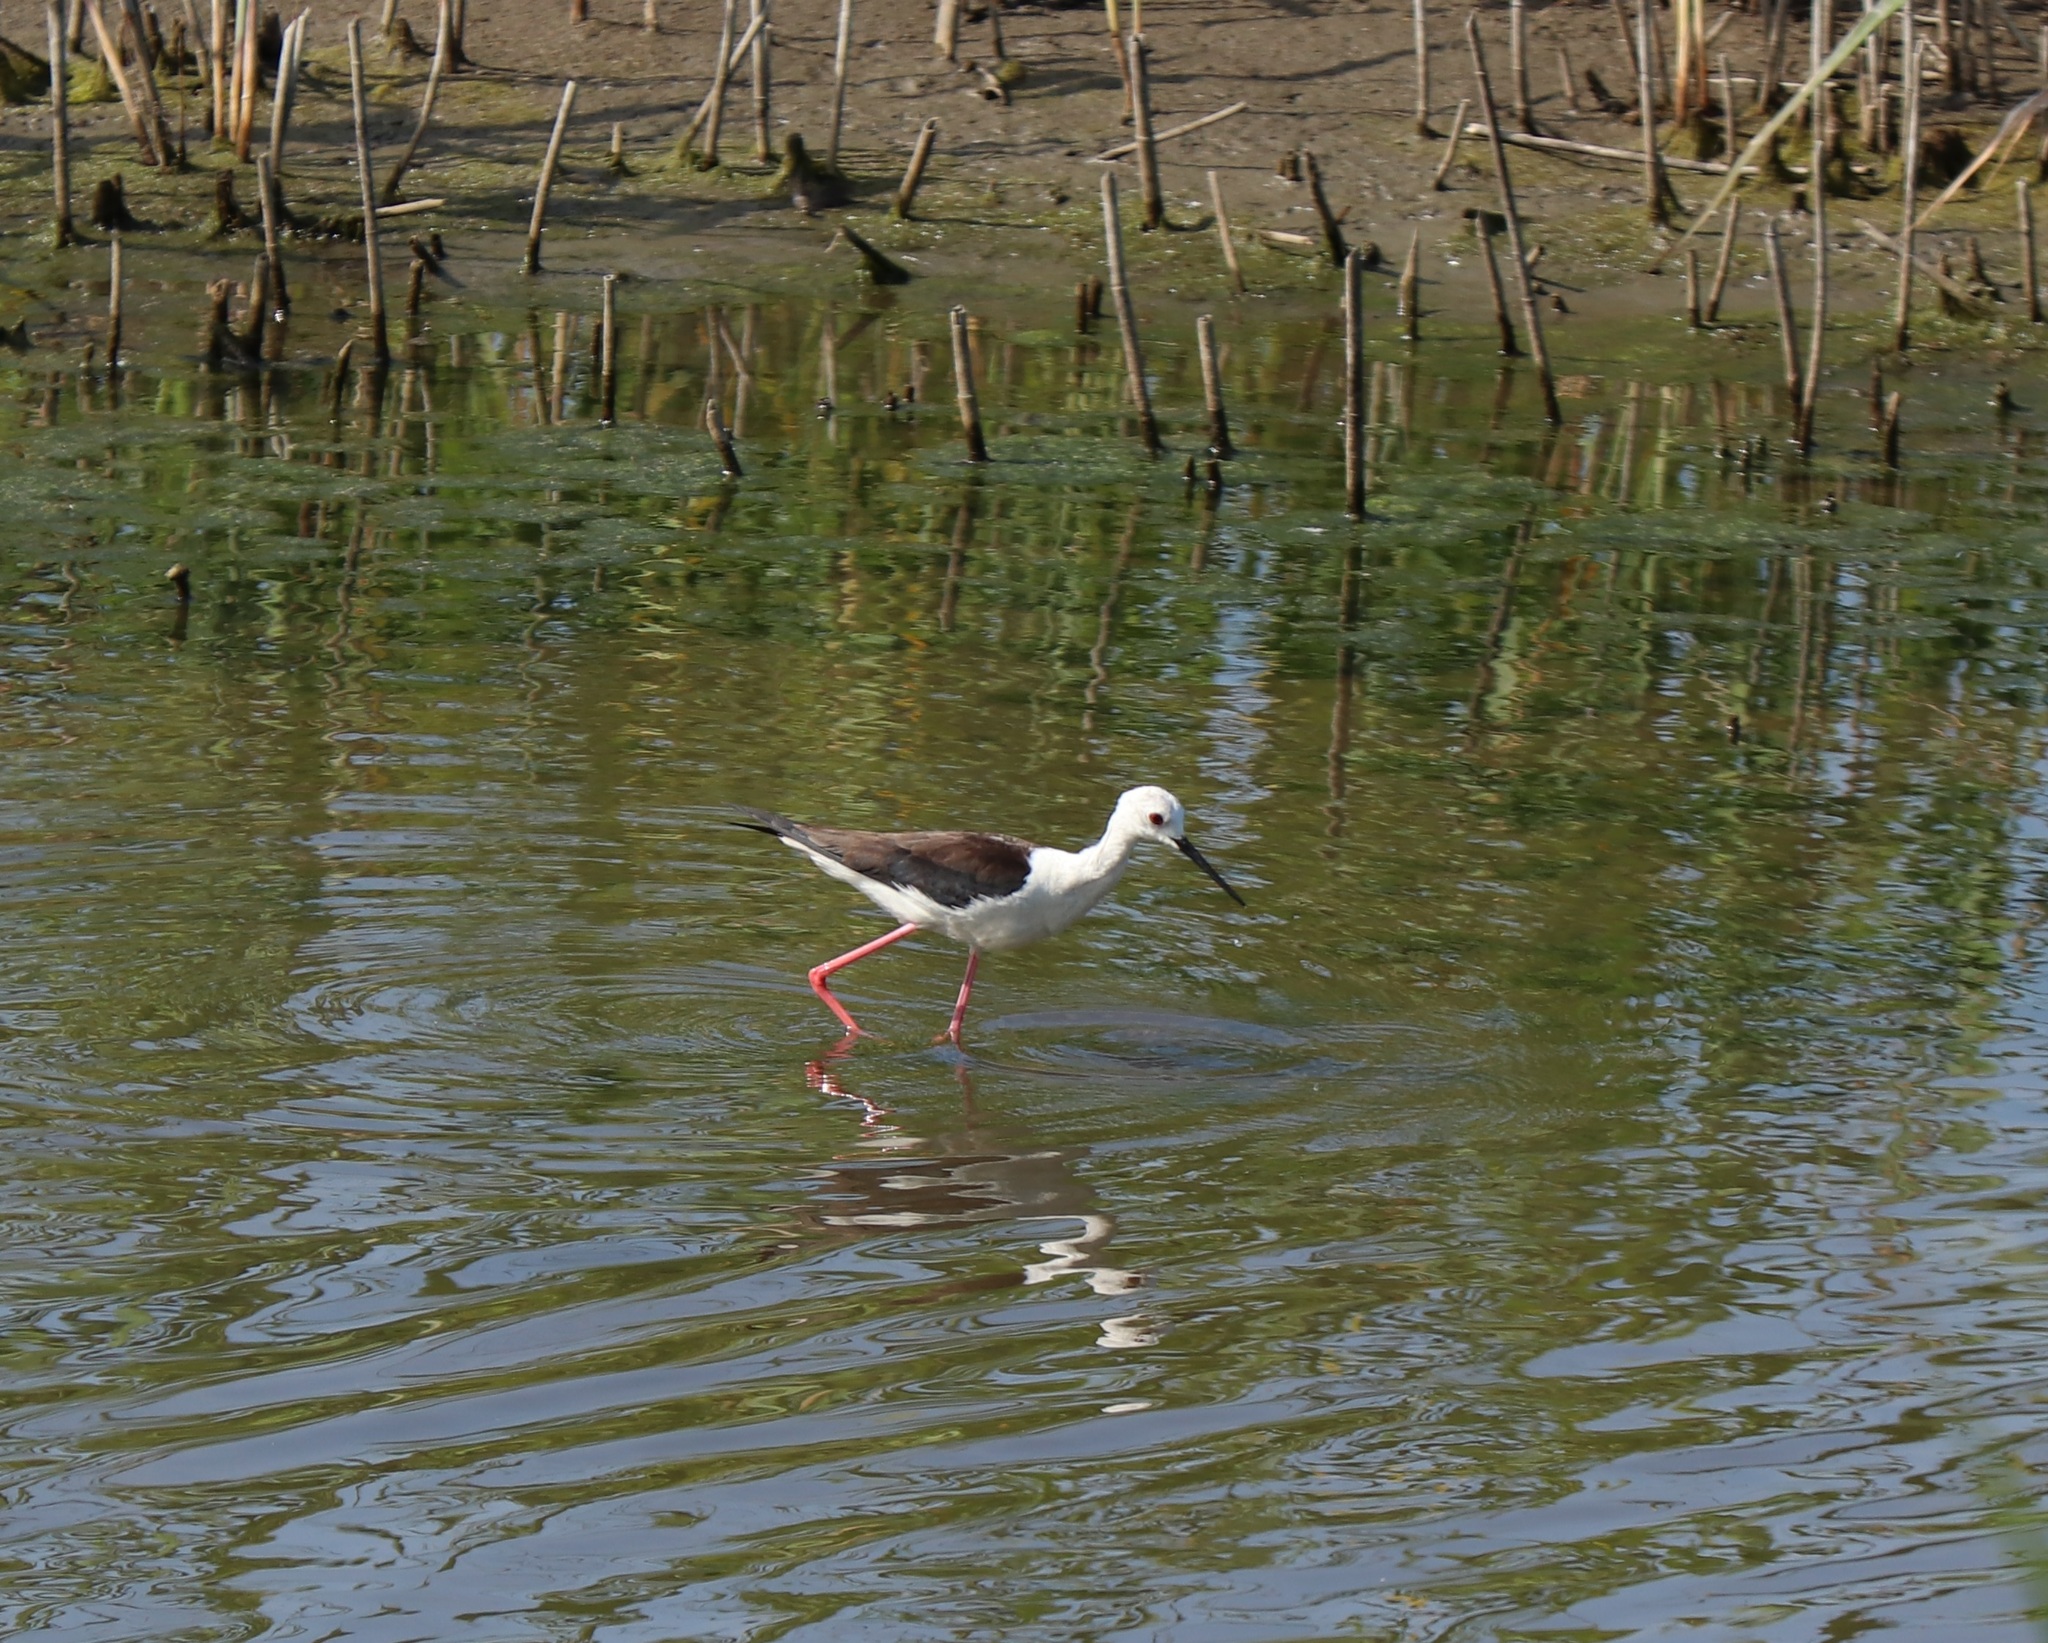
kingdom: Animalia
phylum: Chordata
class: Aves
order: Charadriiformes
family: Recurvirostridae
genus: Himantopus
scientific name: Himantopus himantopus
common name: Black-winged stilt
